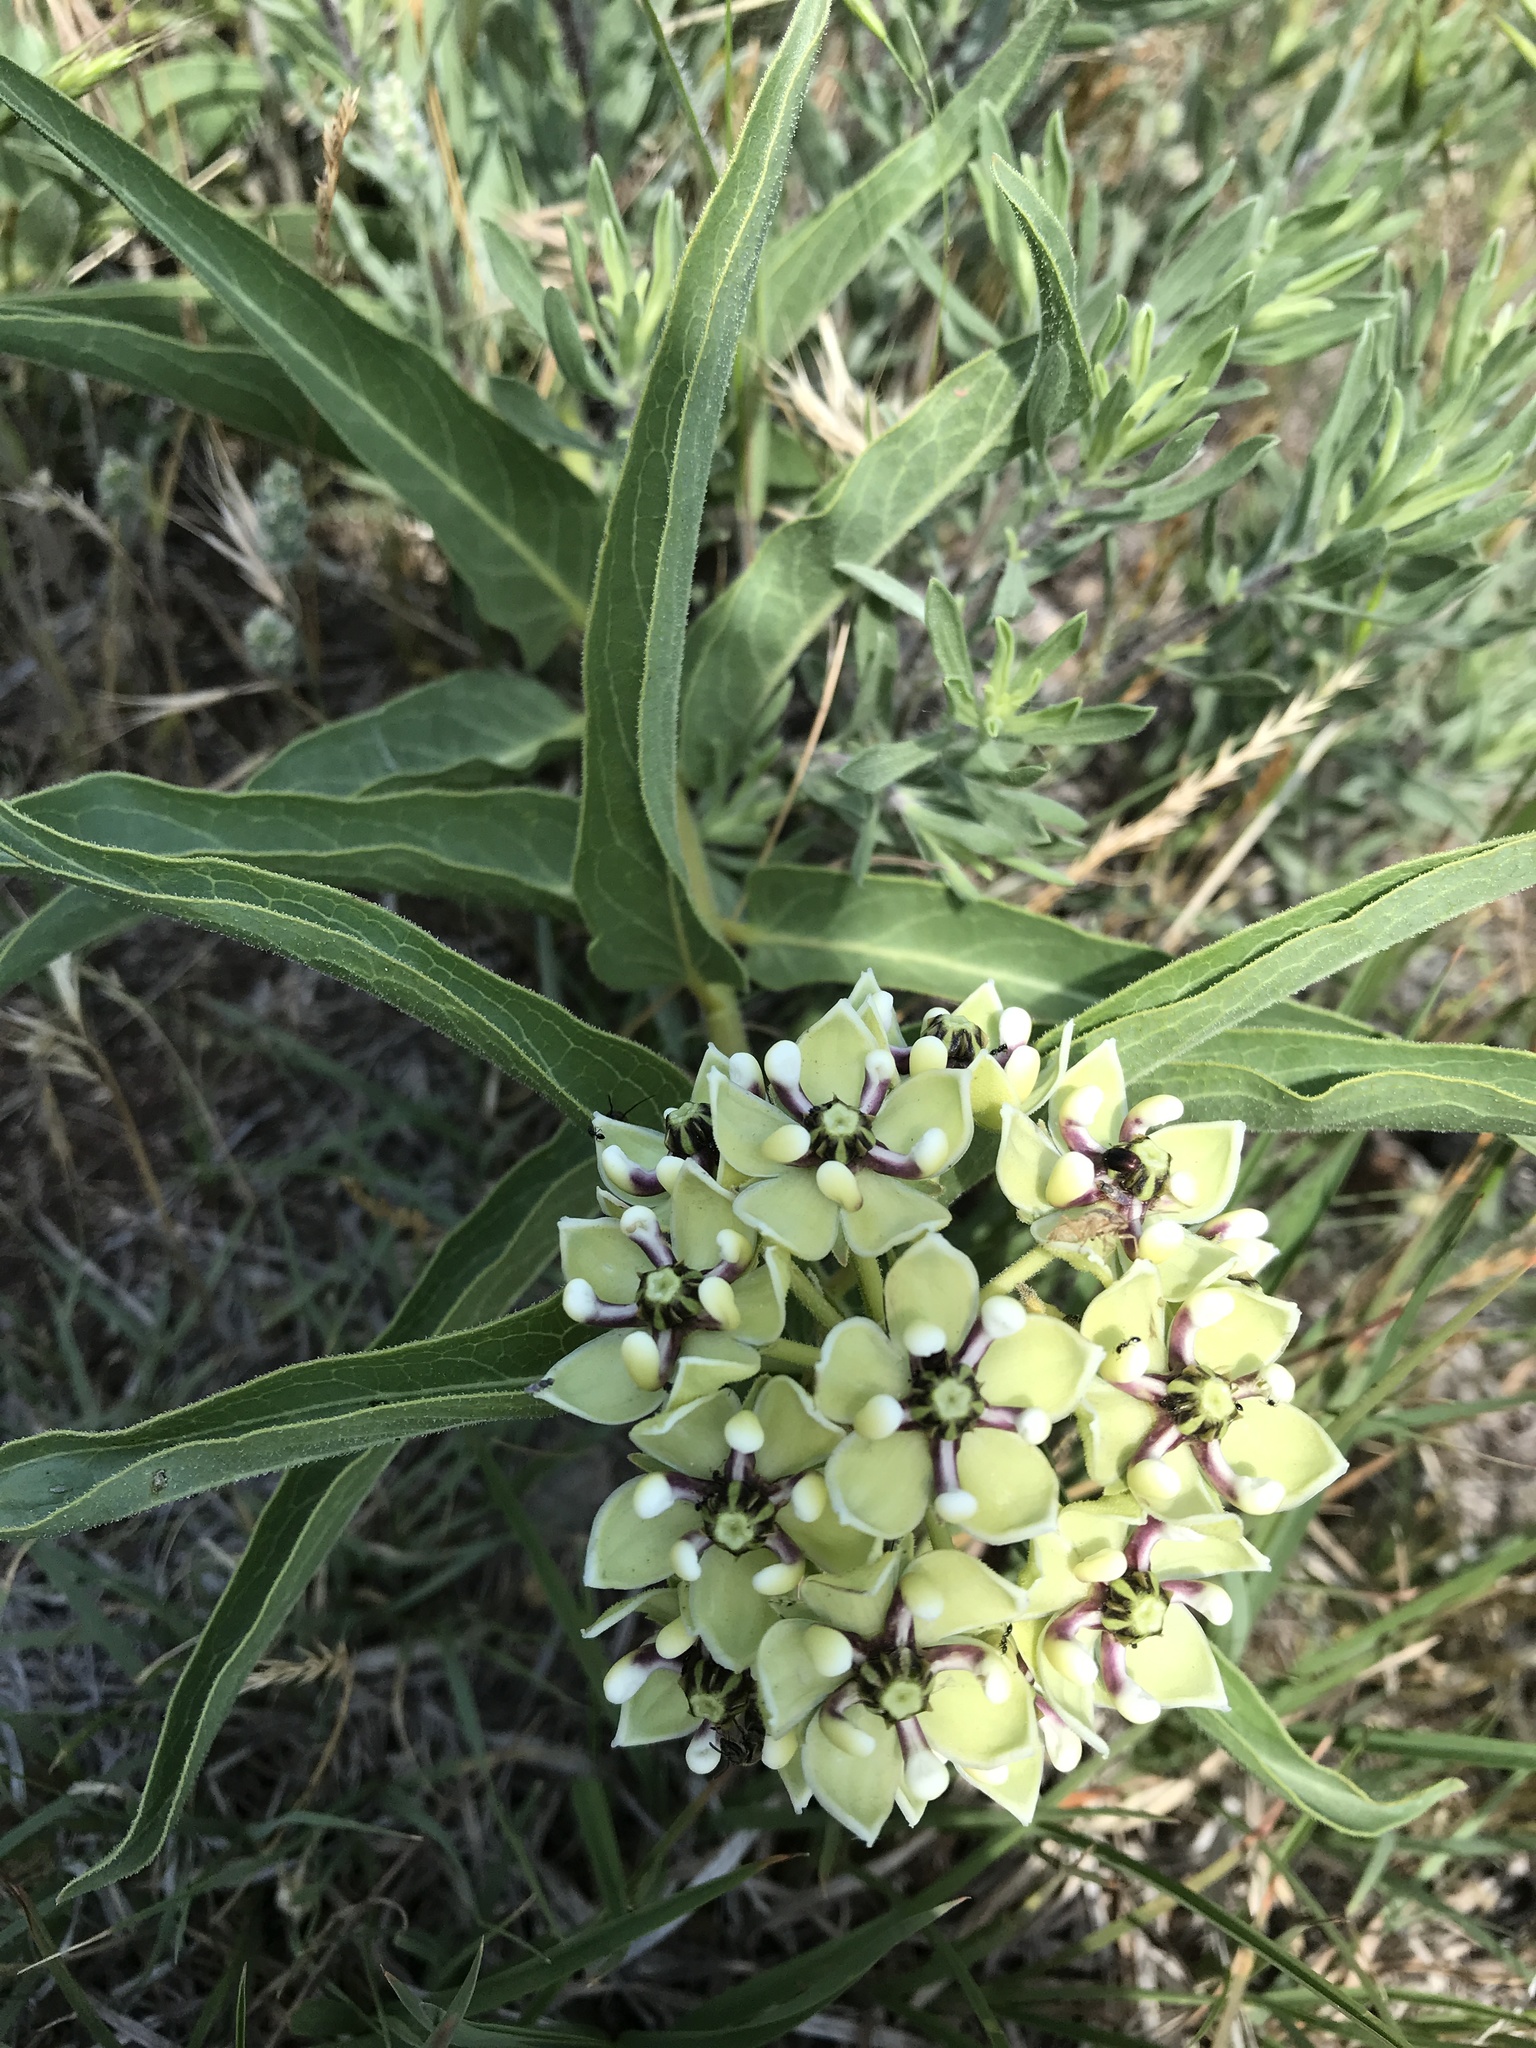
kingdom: Plantae
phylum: Tracheophyta
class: Magnoliopsida
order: Gentianales
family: Apocynaceae
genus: Asclepias
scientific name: Asclepias asperula
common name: Antelope horns
